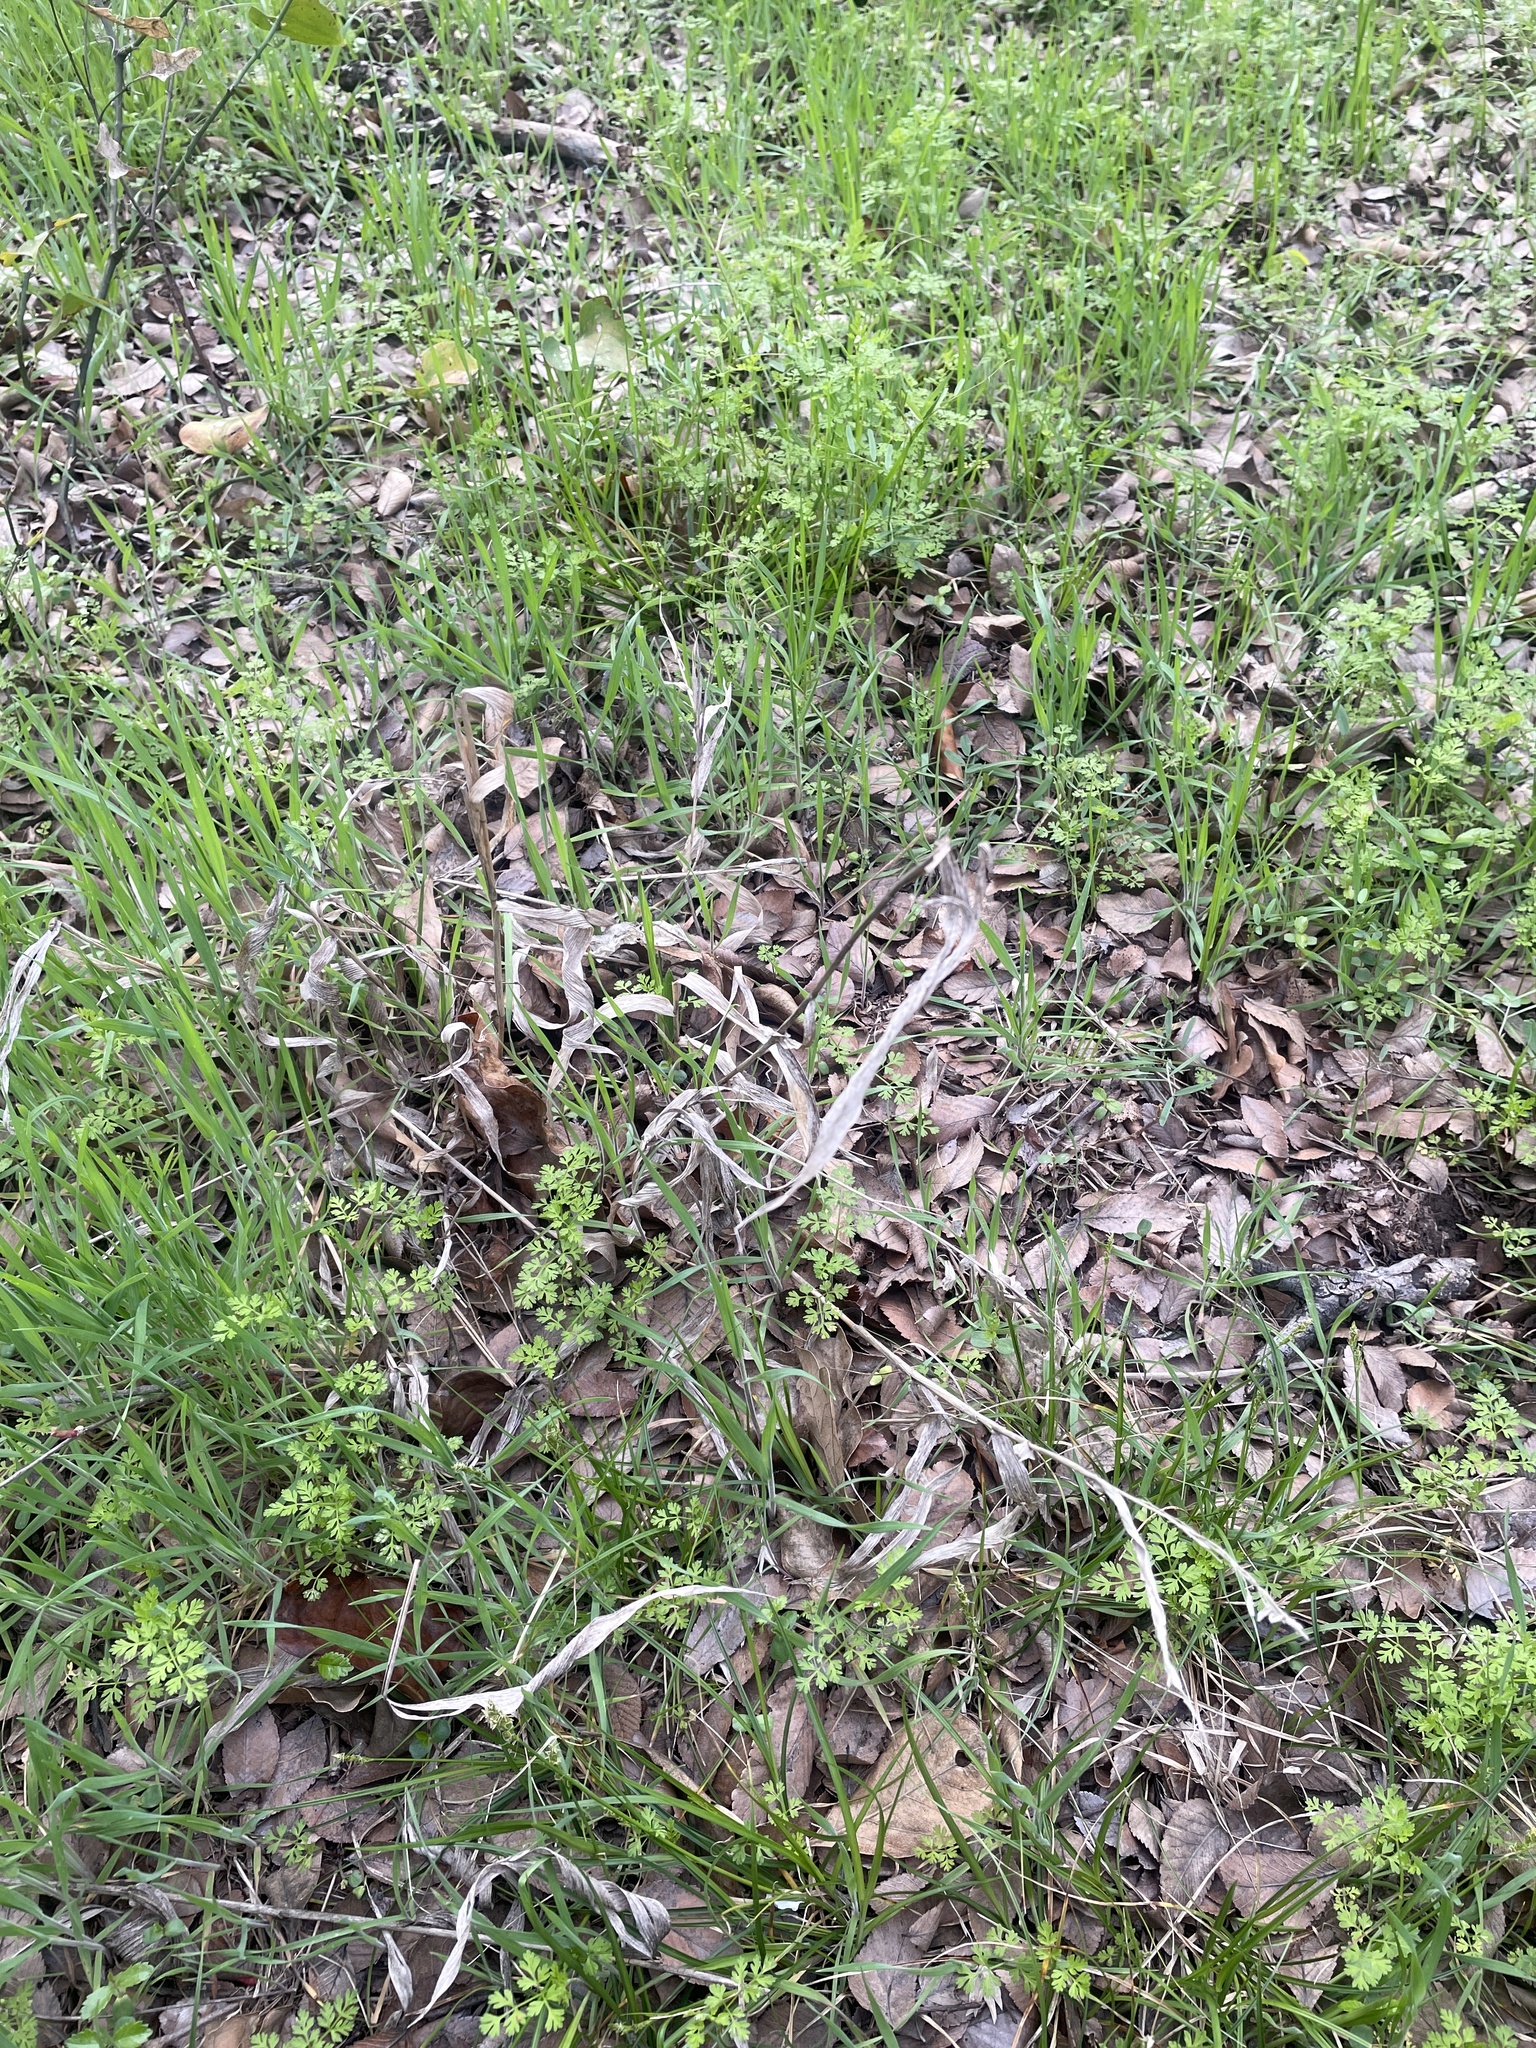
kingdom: Plantae
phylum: Tracheophyta
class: Liliopsida
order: Poales
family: Poaceae
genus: Chasmanthium
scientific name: Chasmanthium latifolium
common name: Broad-leaved chasmanthium
